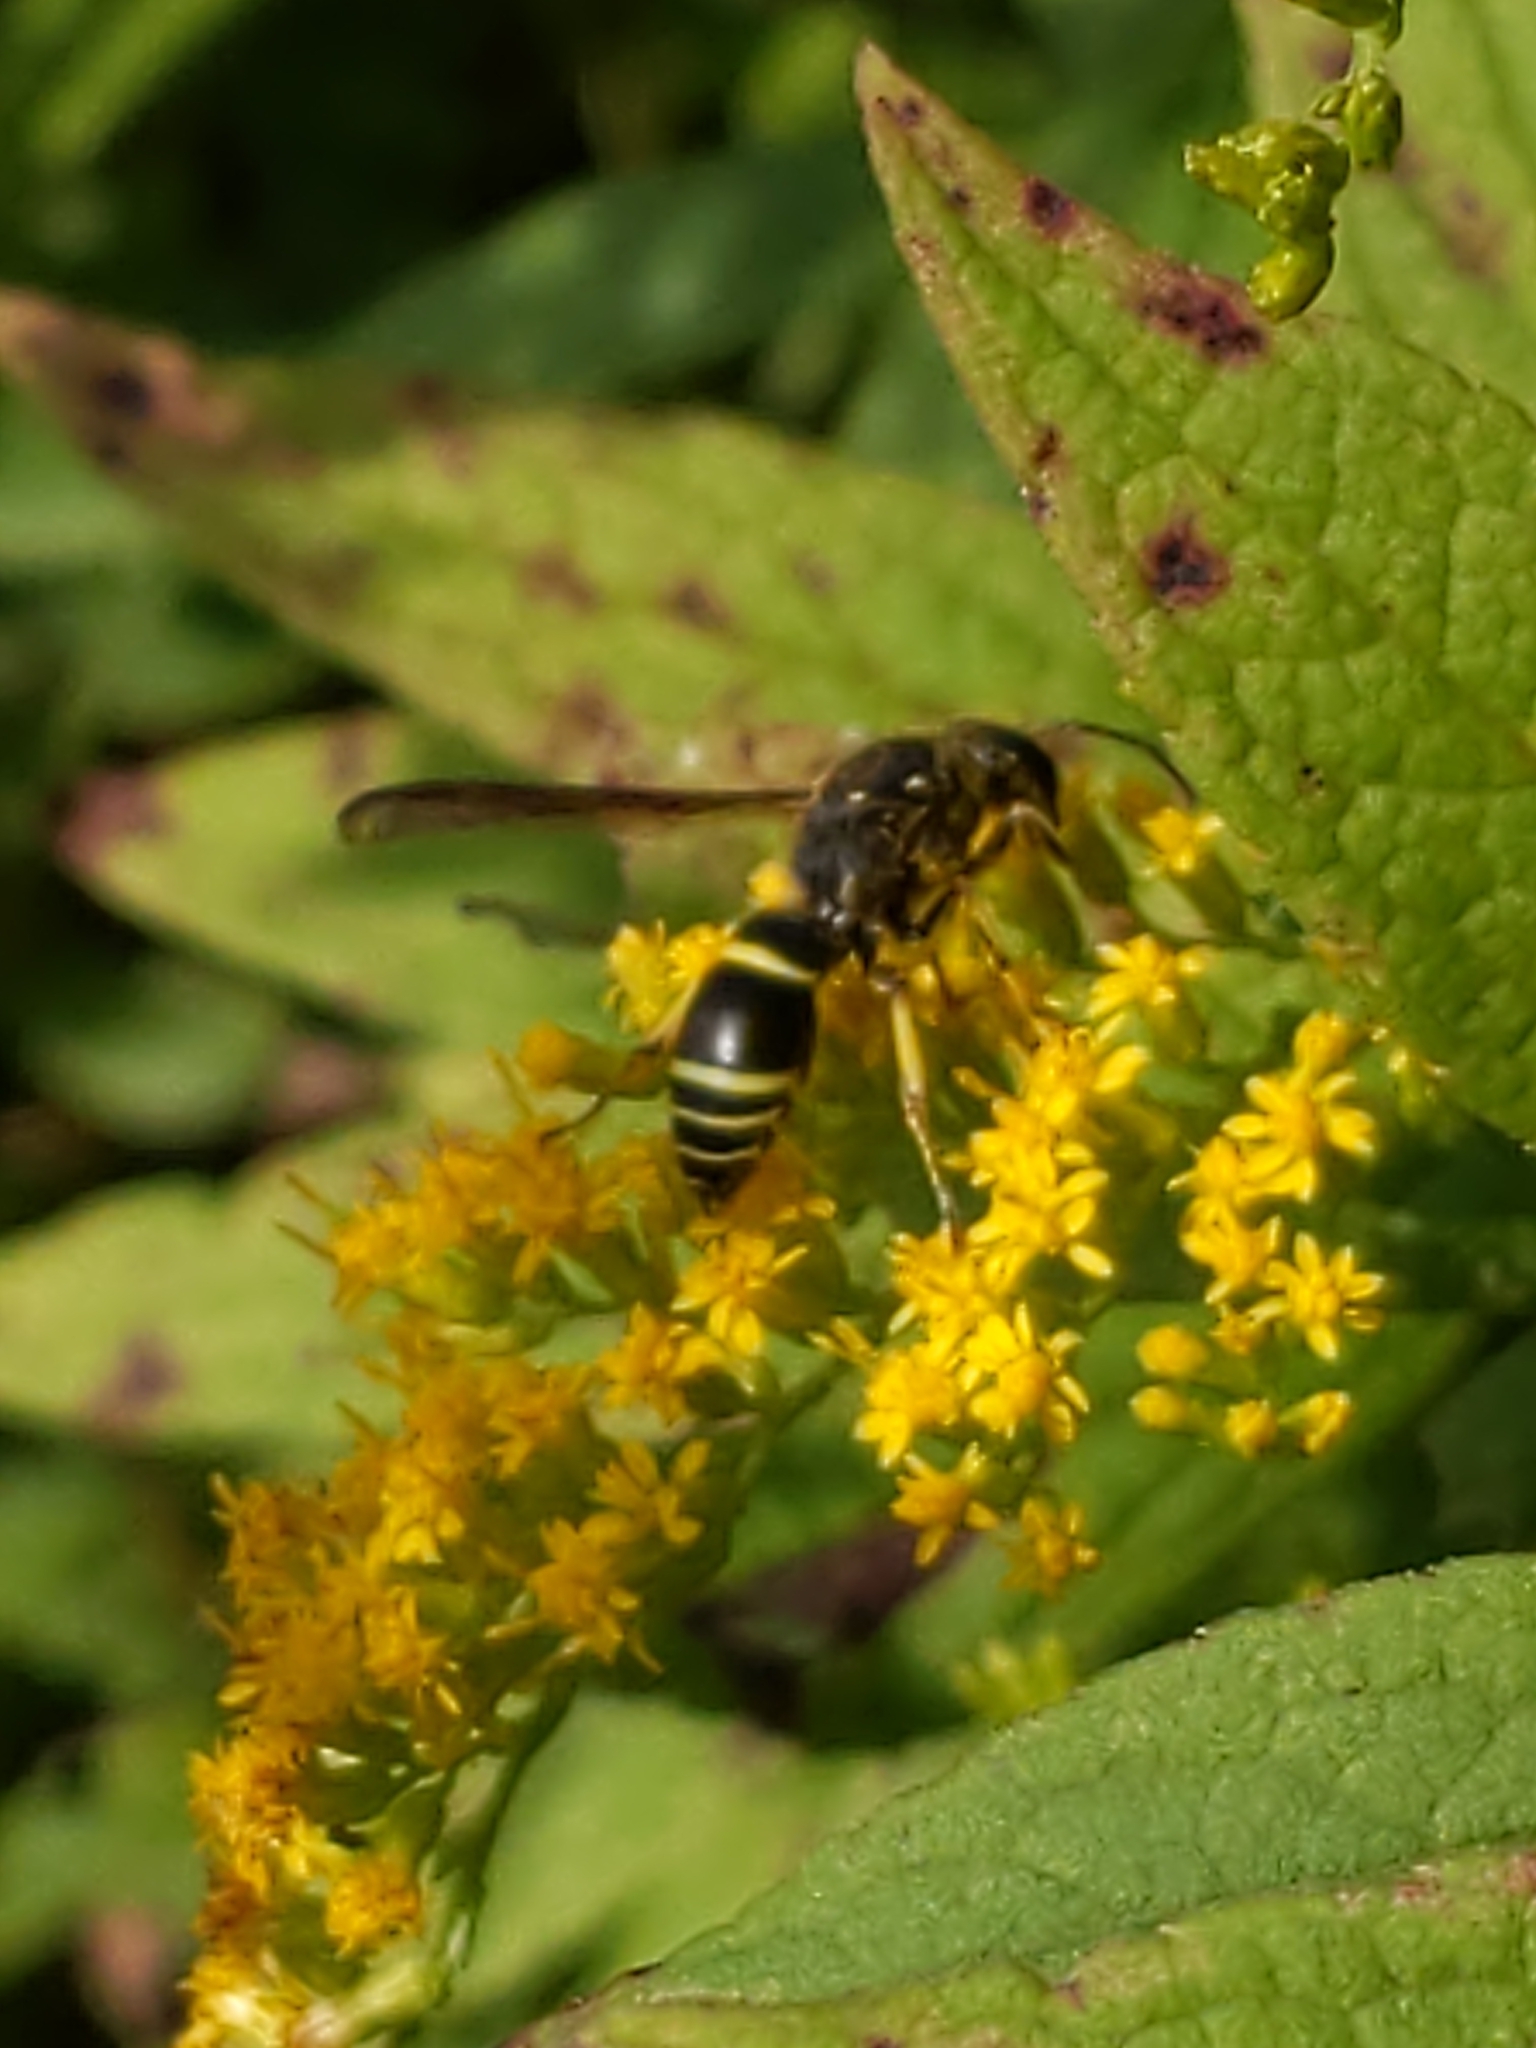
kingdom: Animalia
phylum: Arthropoda
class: Insecta
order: Hymenoptera
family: Vespidae
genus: Ancistrocerus
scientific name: Ancistrocerus
